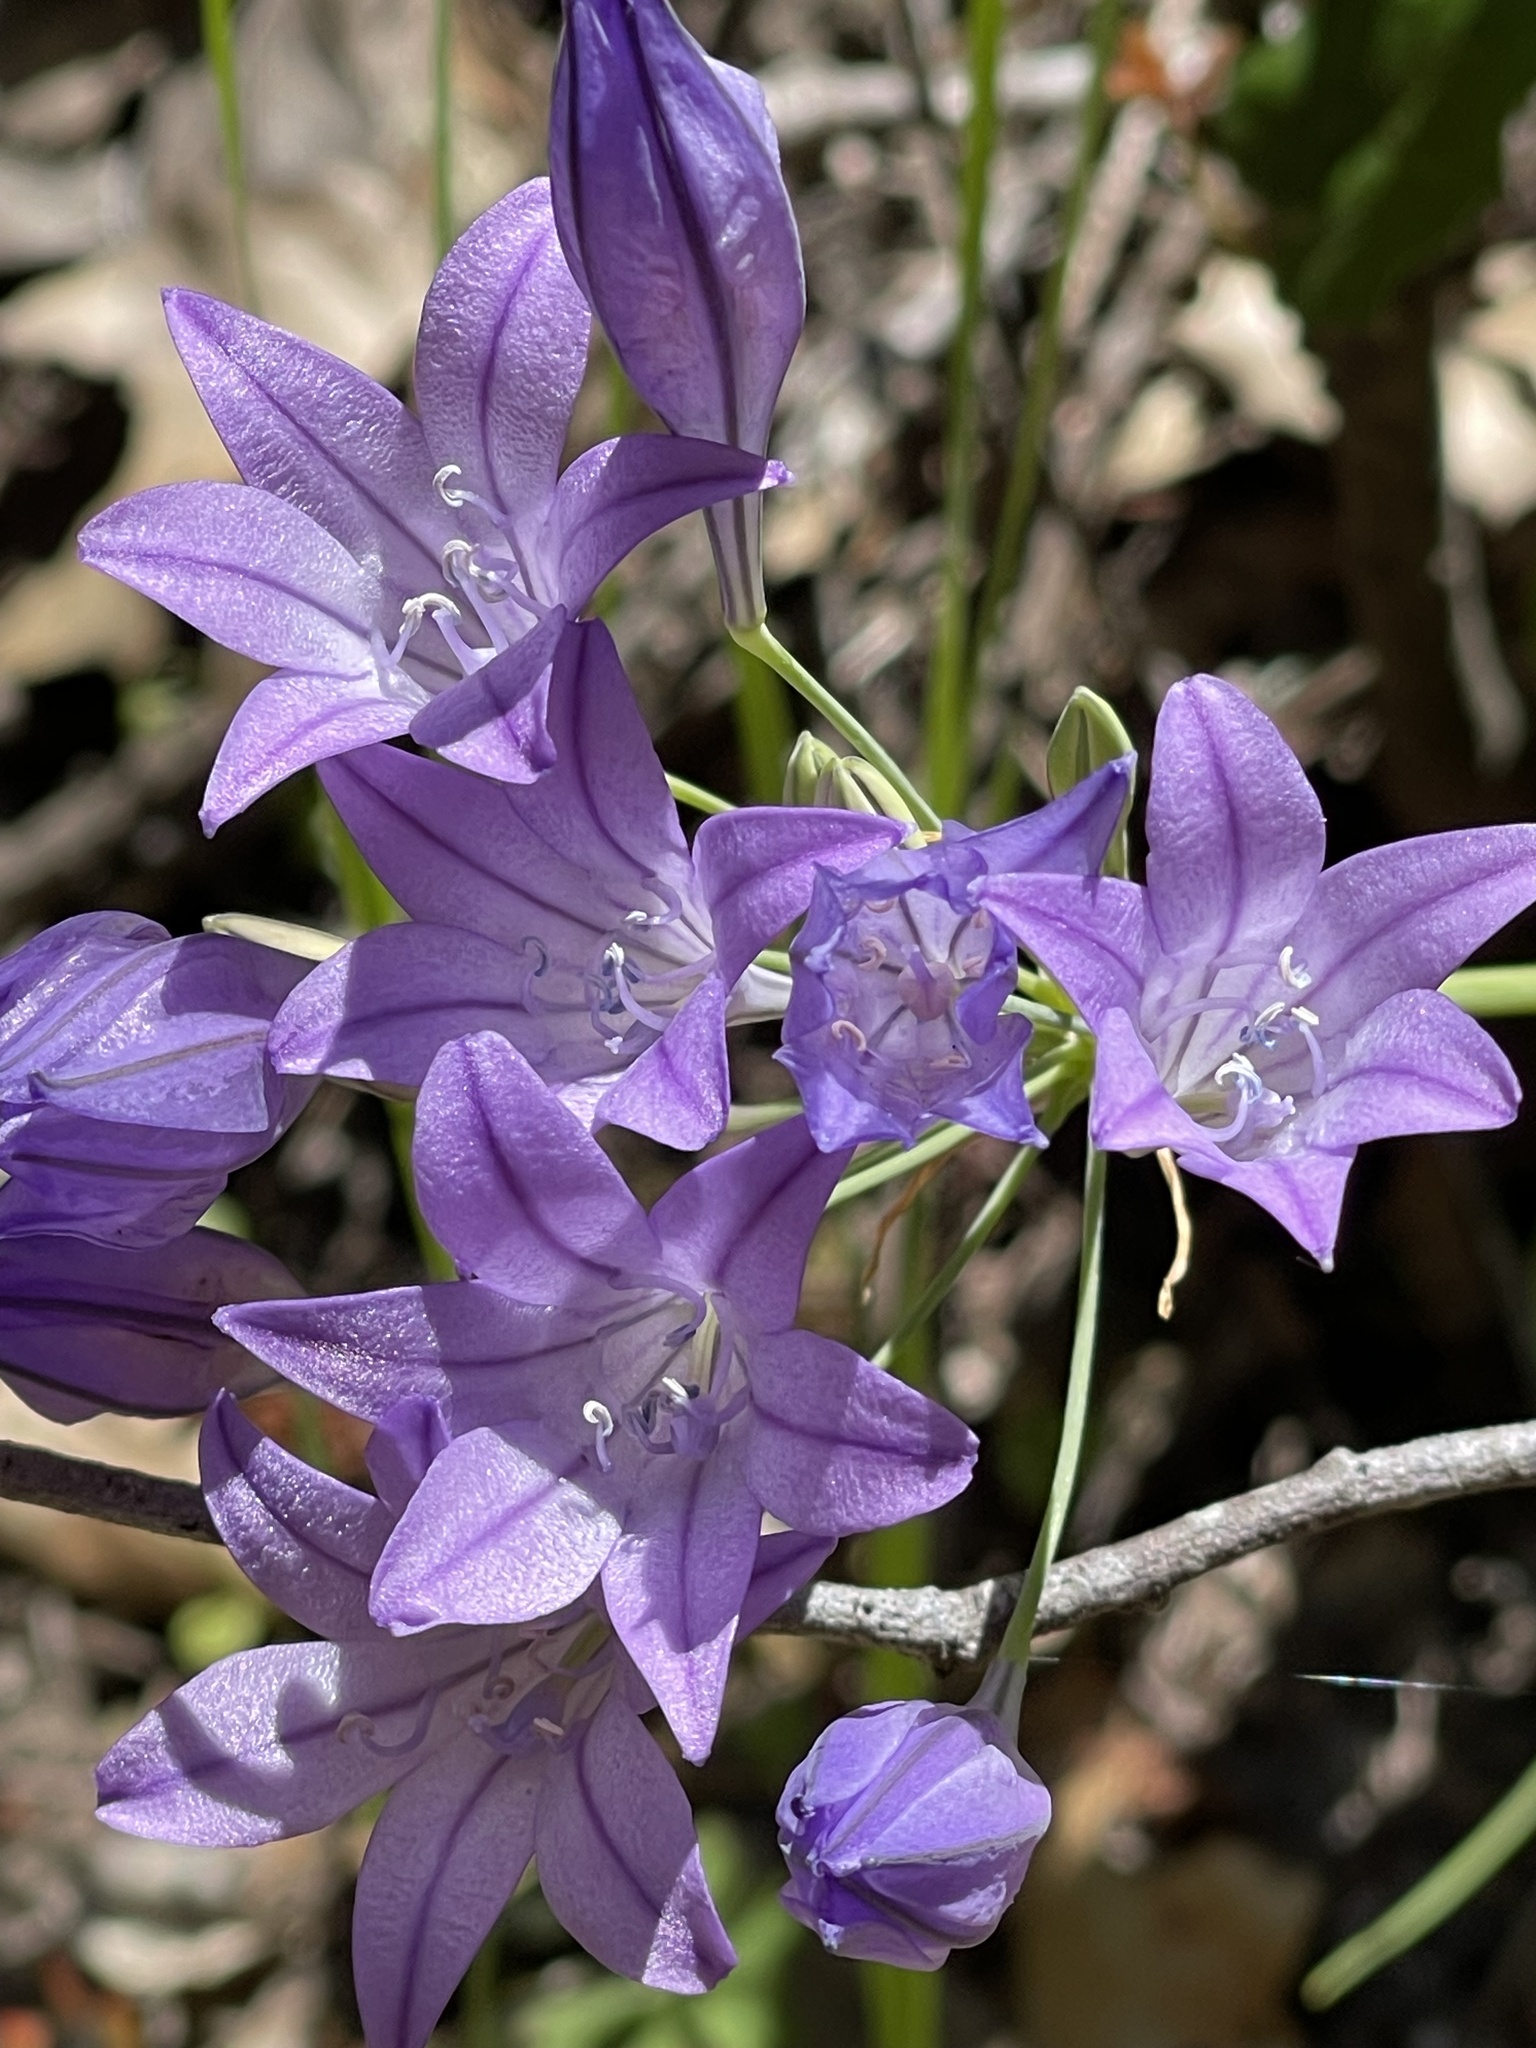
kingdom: Plantae
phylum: Tracheophyta
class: Liliopsida
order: Asparagales
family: Asparagaceae
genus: Triteleia
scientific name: Triteleia laxa
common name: Triplet-lily
